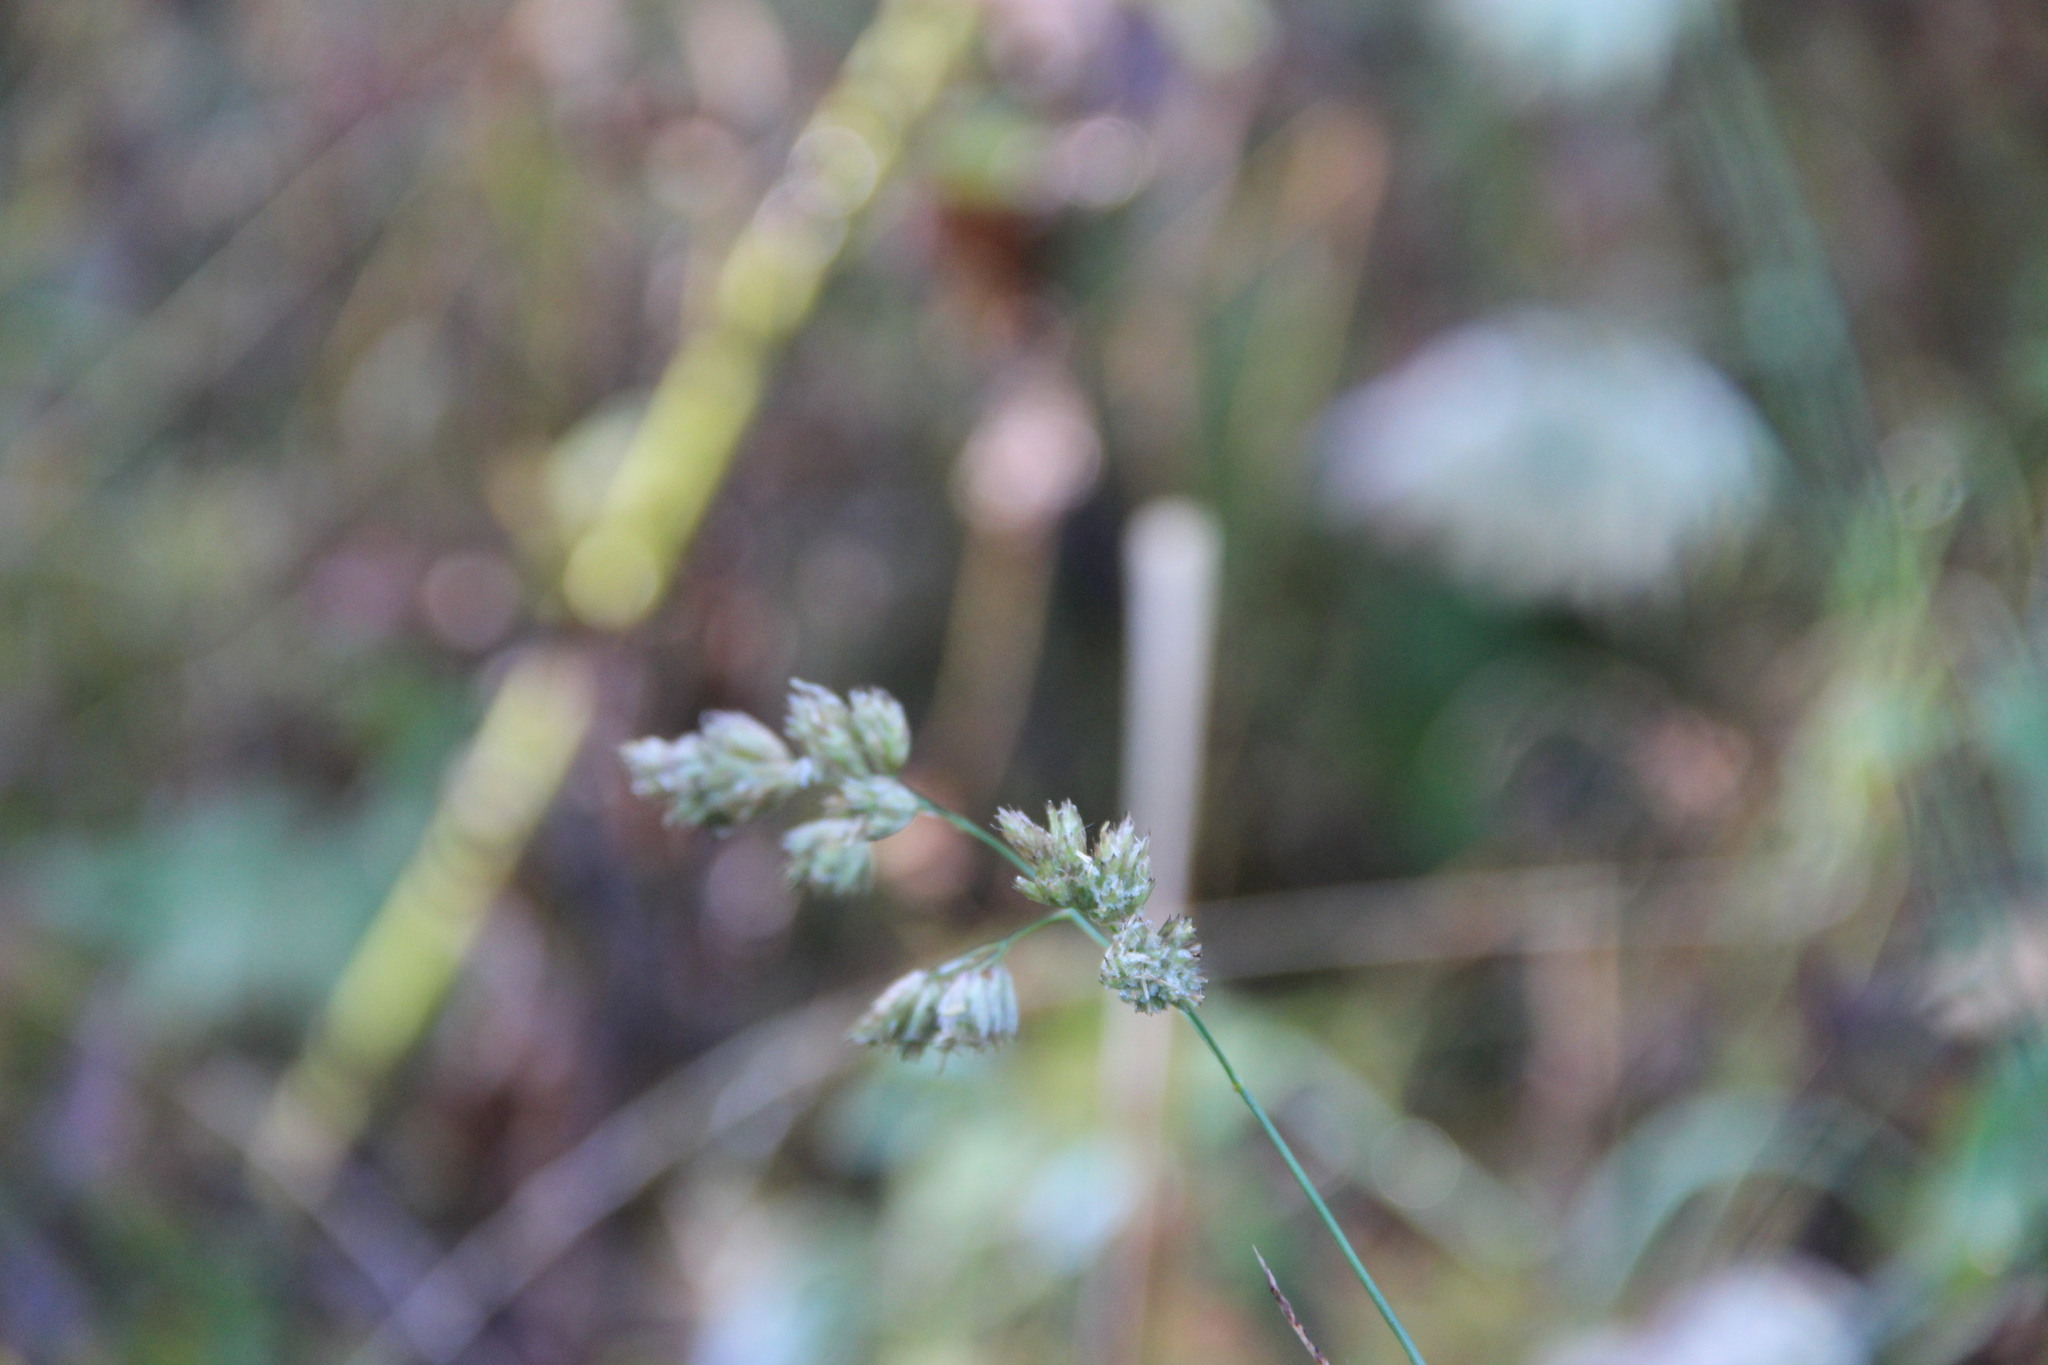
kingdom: Plantae
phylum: Tracheophyta
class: Liliopsida
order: Poales
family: Poaceae
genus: Dactylis
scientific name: Dactylis glomerata
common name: Orchardgrass
